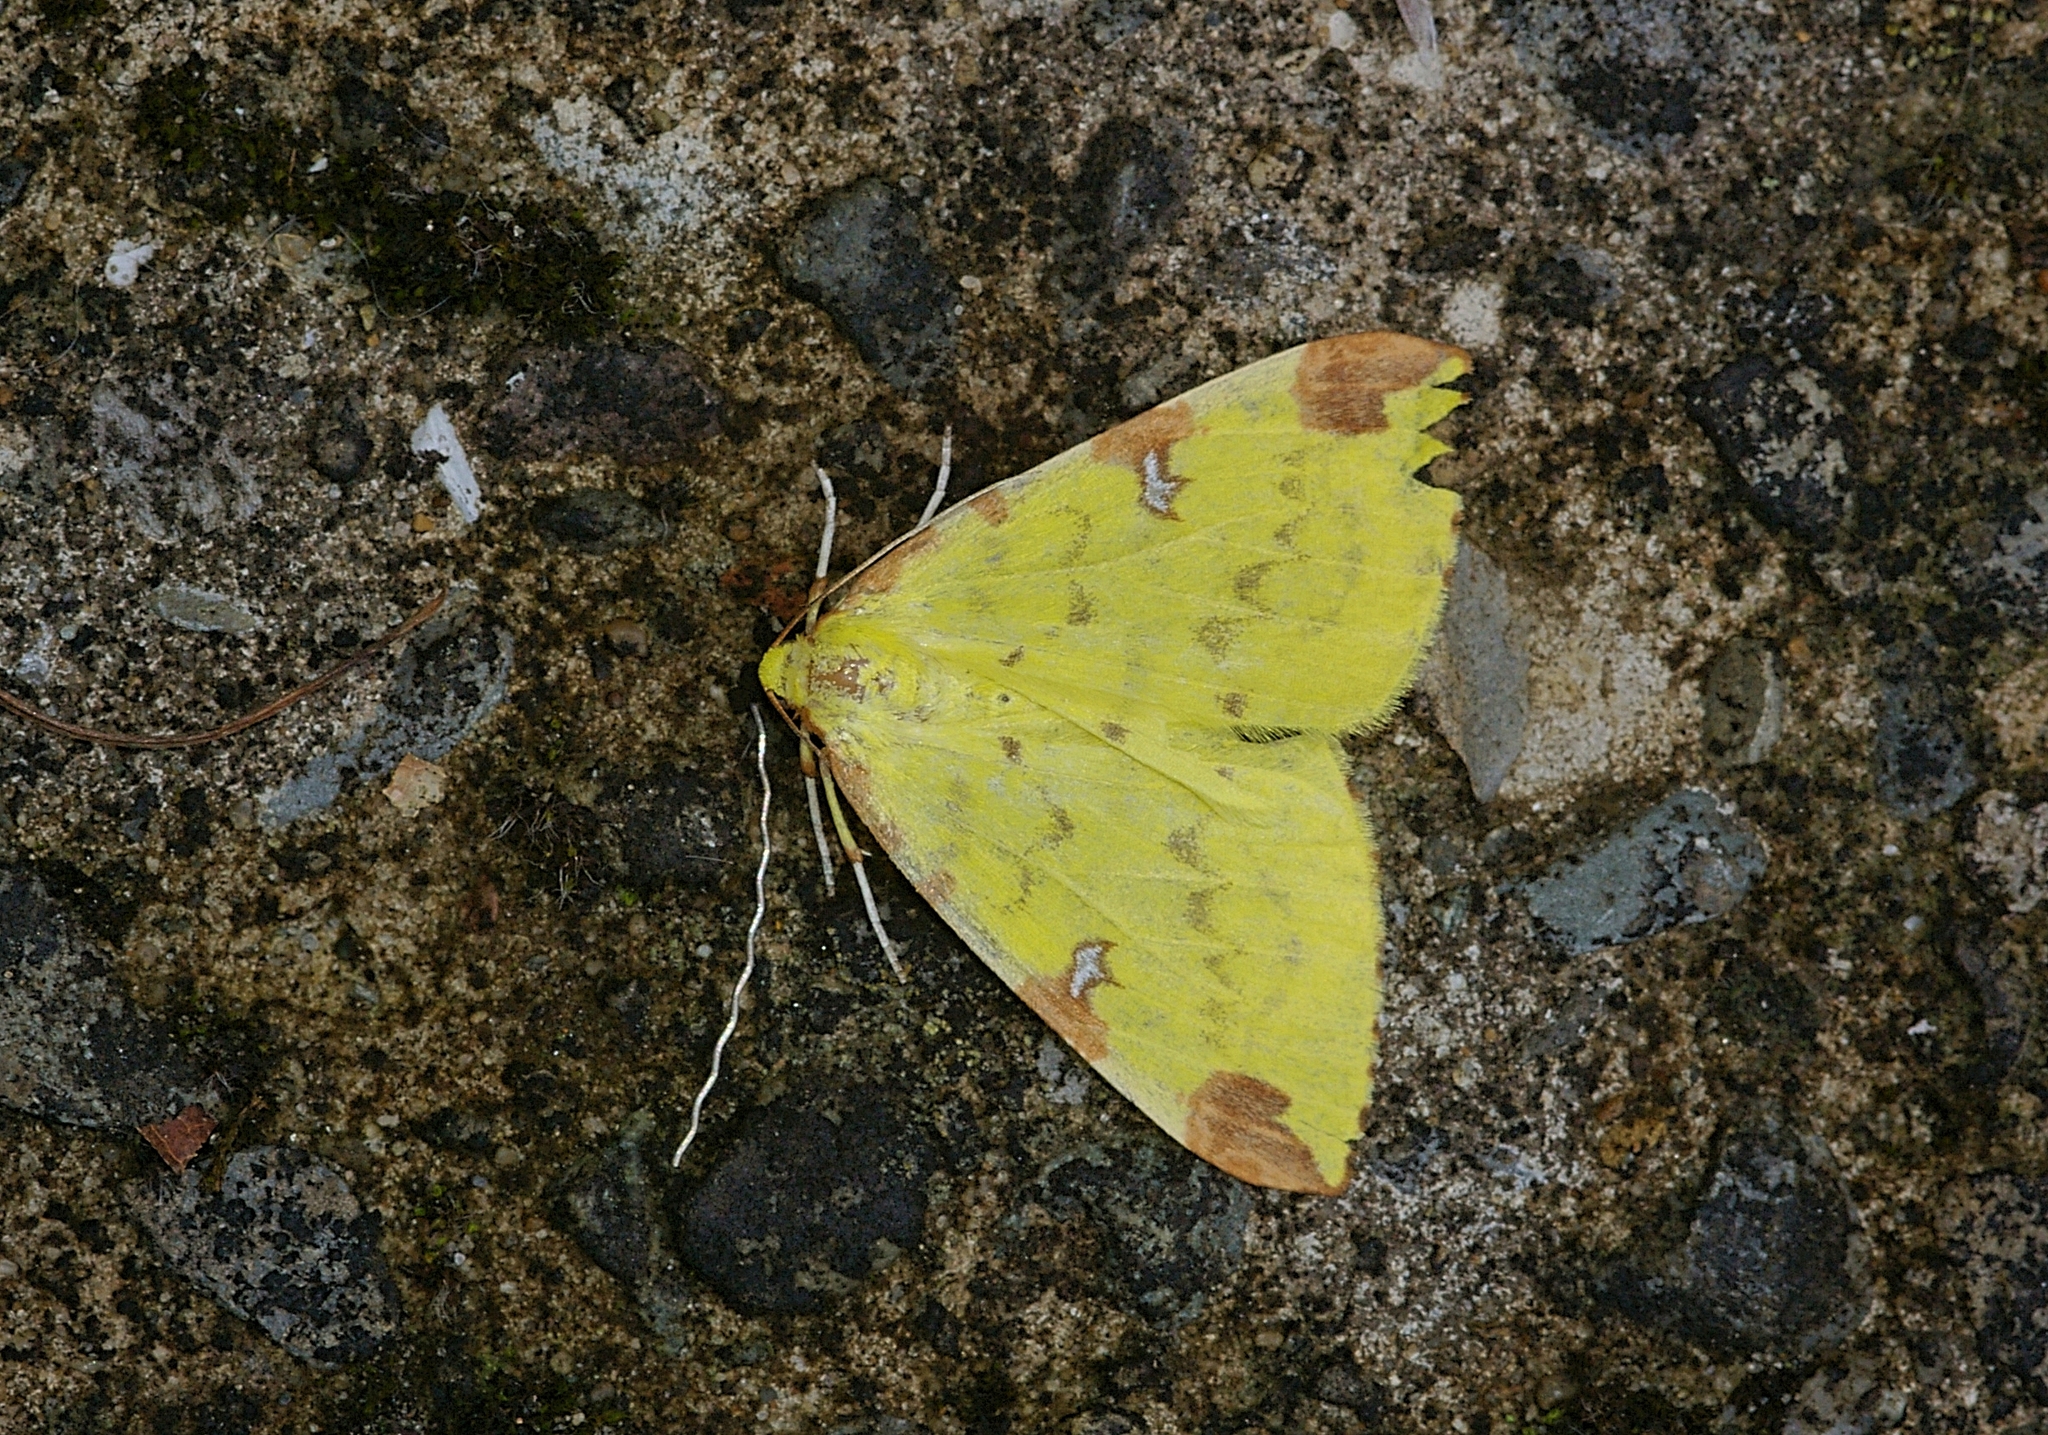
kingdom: Animalia
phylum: Arthropoda
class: Insecta
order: Lepidoptera
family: Geometridae
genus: Opisthograptis
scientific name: Opisthograptis luteolata
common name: Brimstone moth
